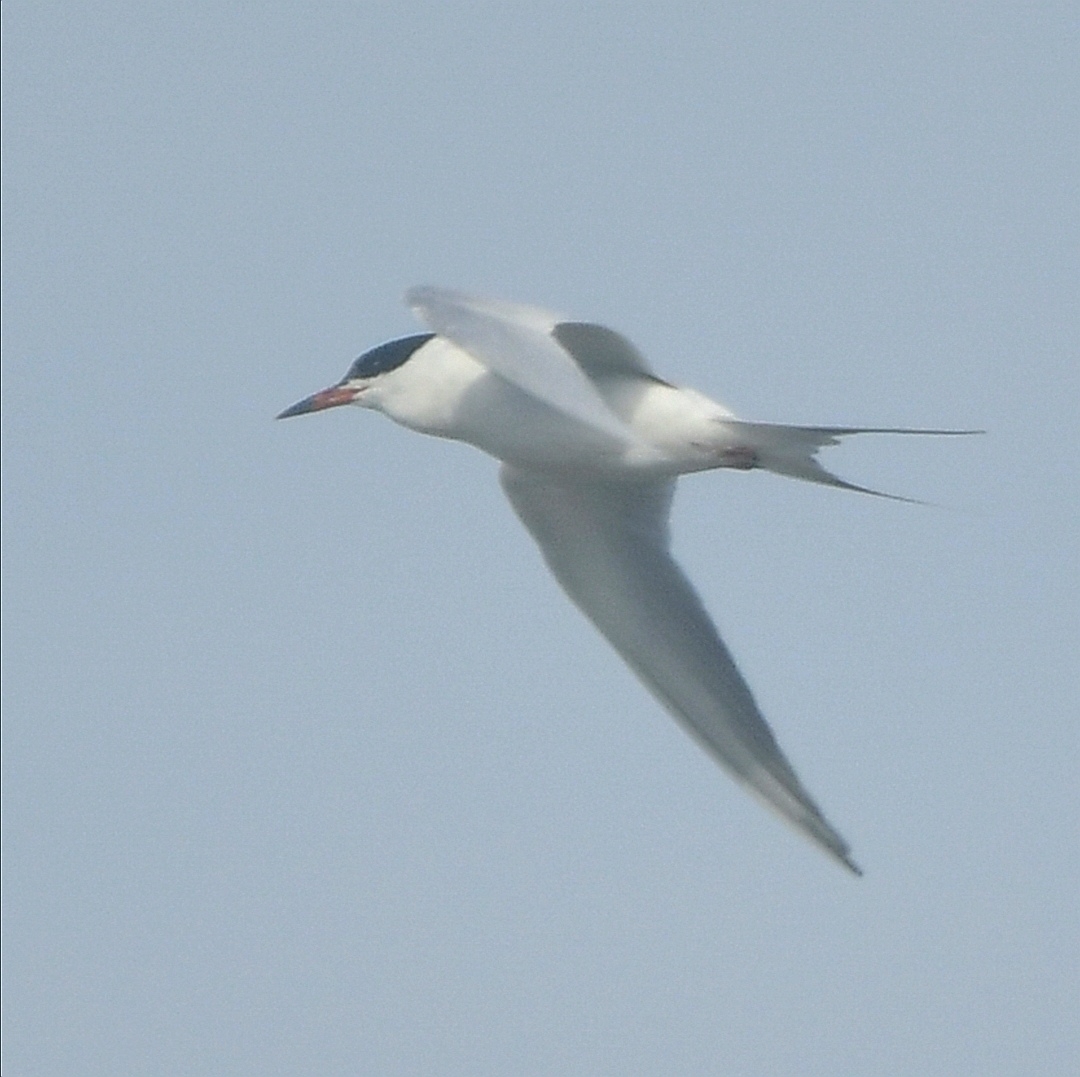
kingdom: Animalia
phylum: Chordata
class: Aves
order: Charadriiformes
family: Laridae
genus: Sterna
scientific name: Sterna forsteri
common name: Forster's tern
